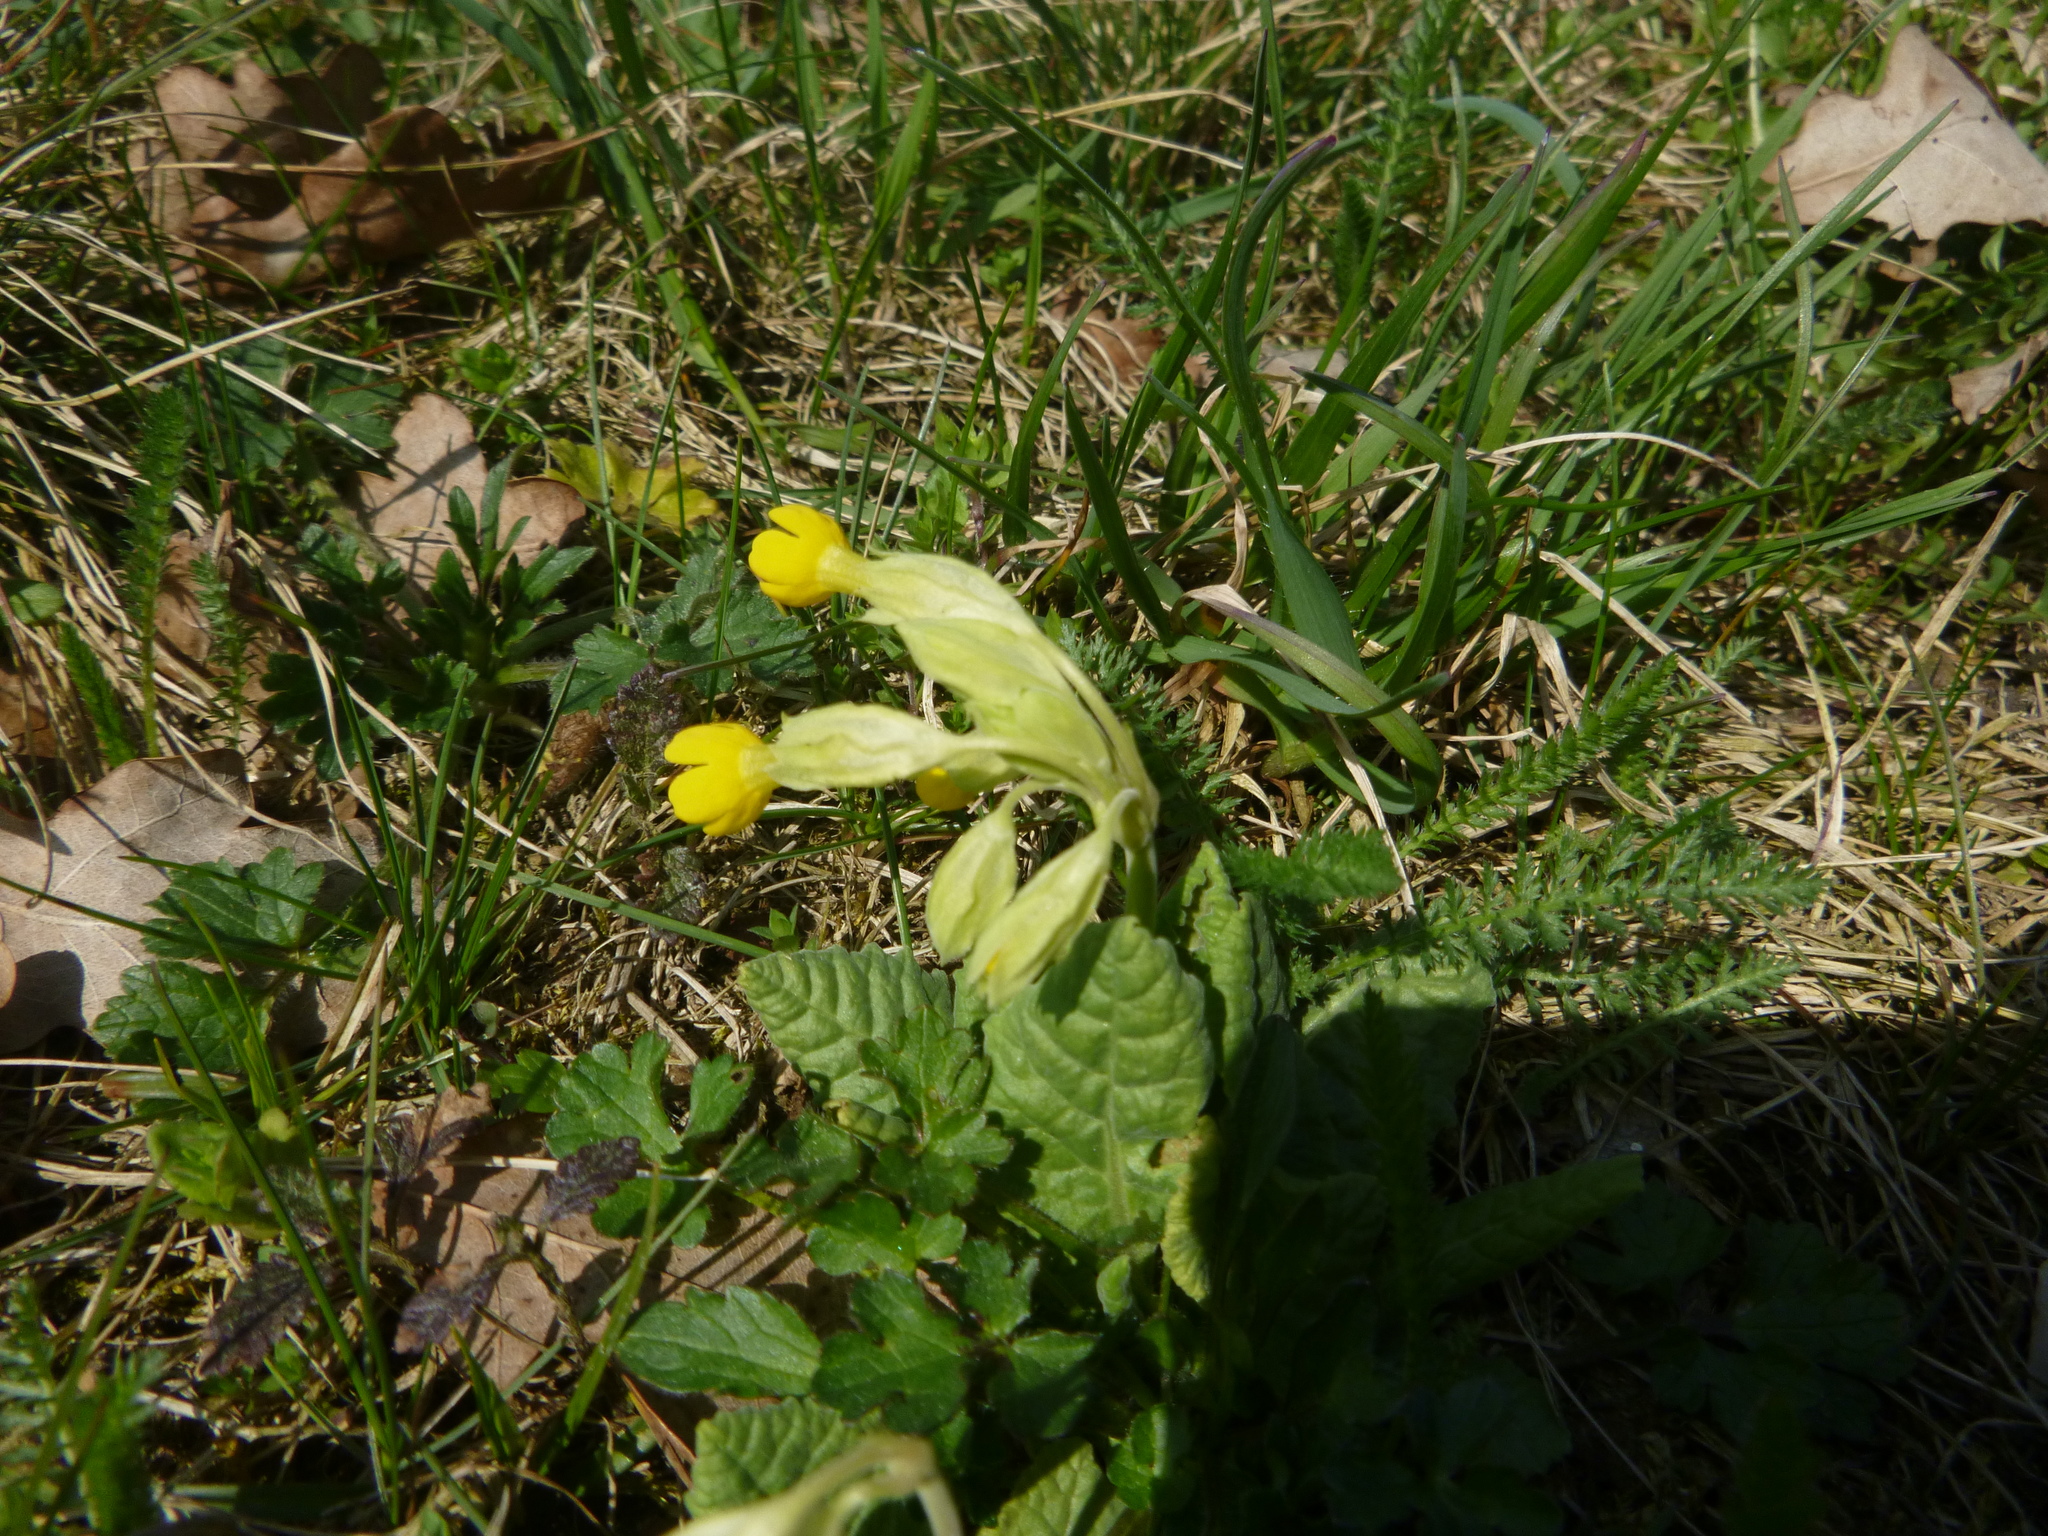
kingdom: Plantae
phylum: Tracheophyta
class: Magnoliopsida
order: Ericales
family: Primulaceae
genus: Primula
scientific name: Primula veris
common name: Cowslip
